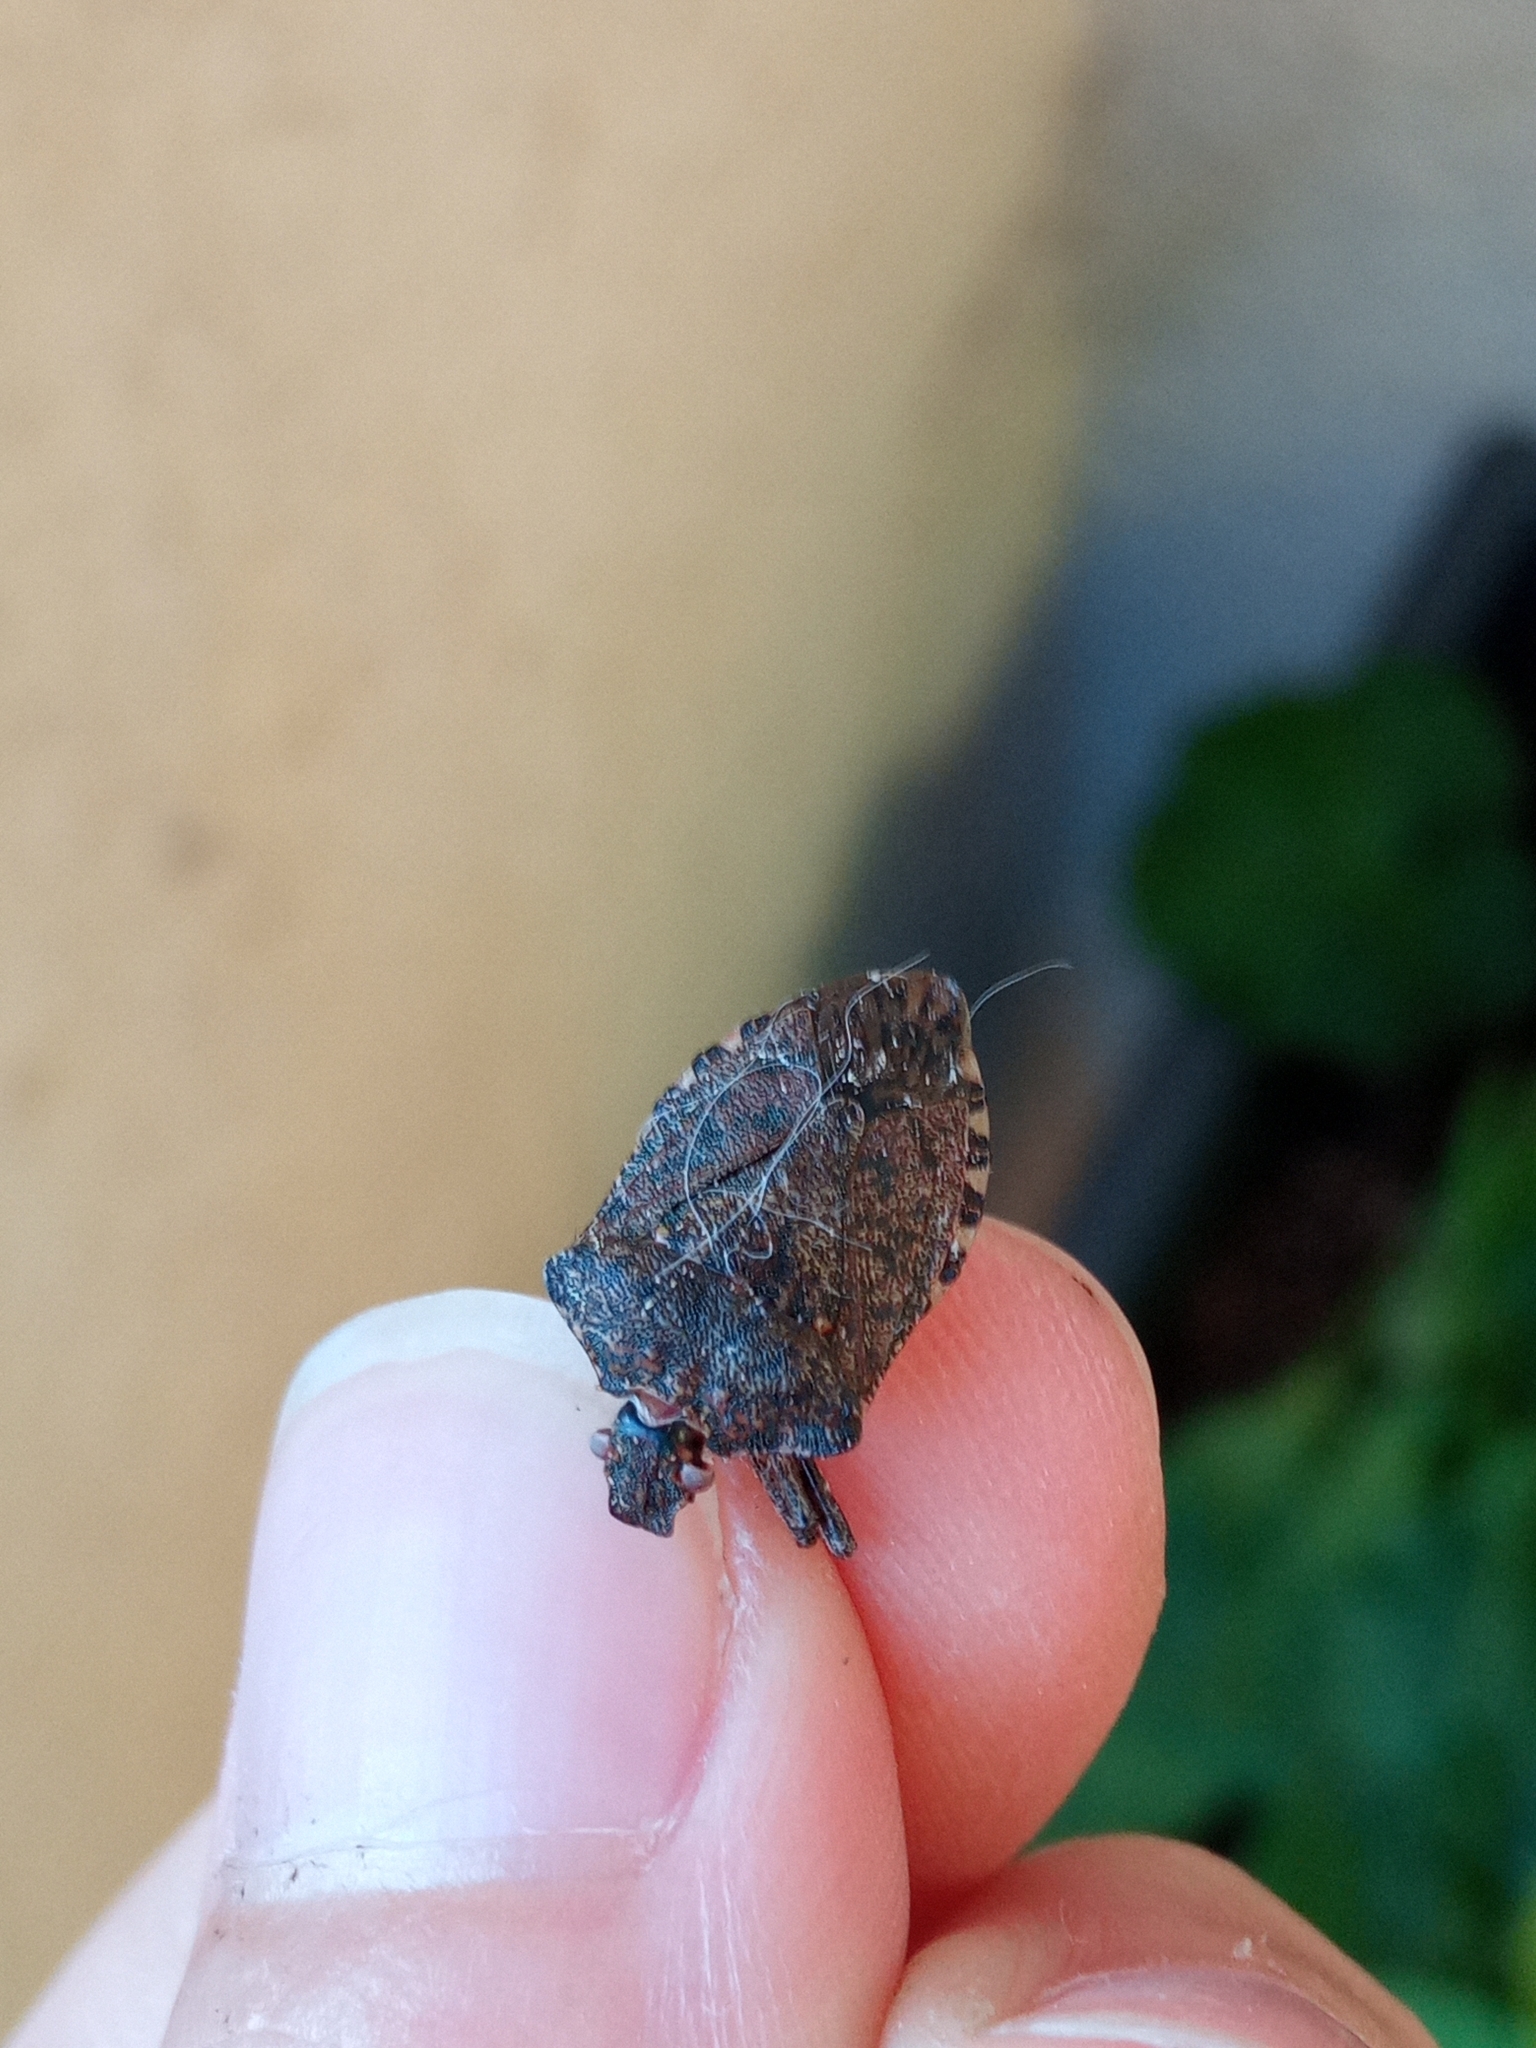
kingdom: Animalia
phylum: Arthropoda
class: Insecta
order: Hemiptera
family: Pentatomidae
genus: Halyomorpha
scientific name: Halyomorpha halys
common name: Brown marmorated stink bug
